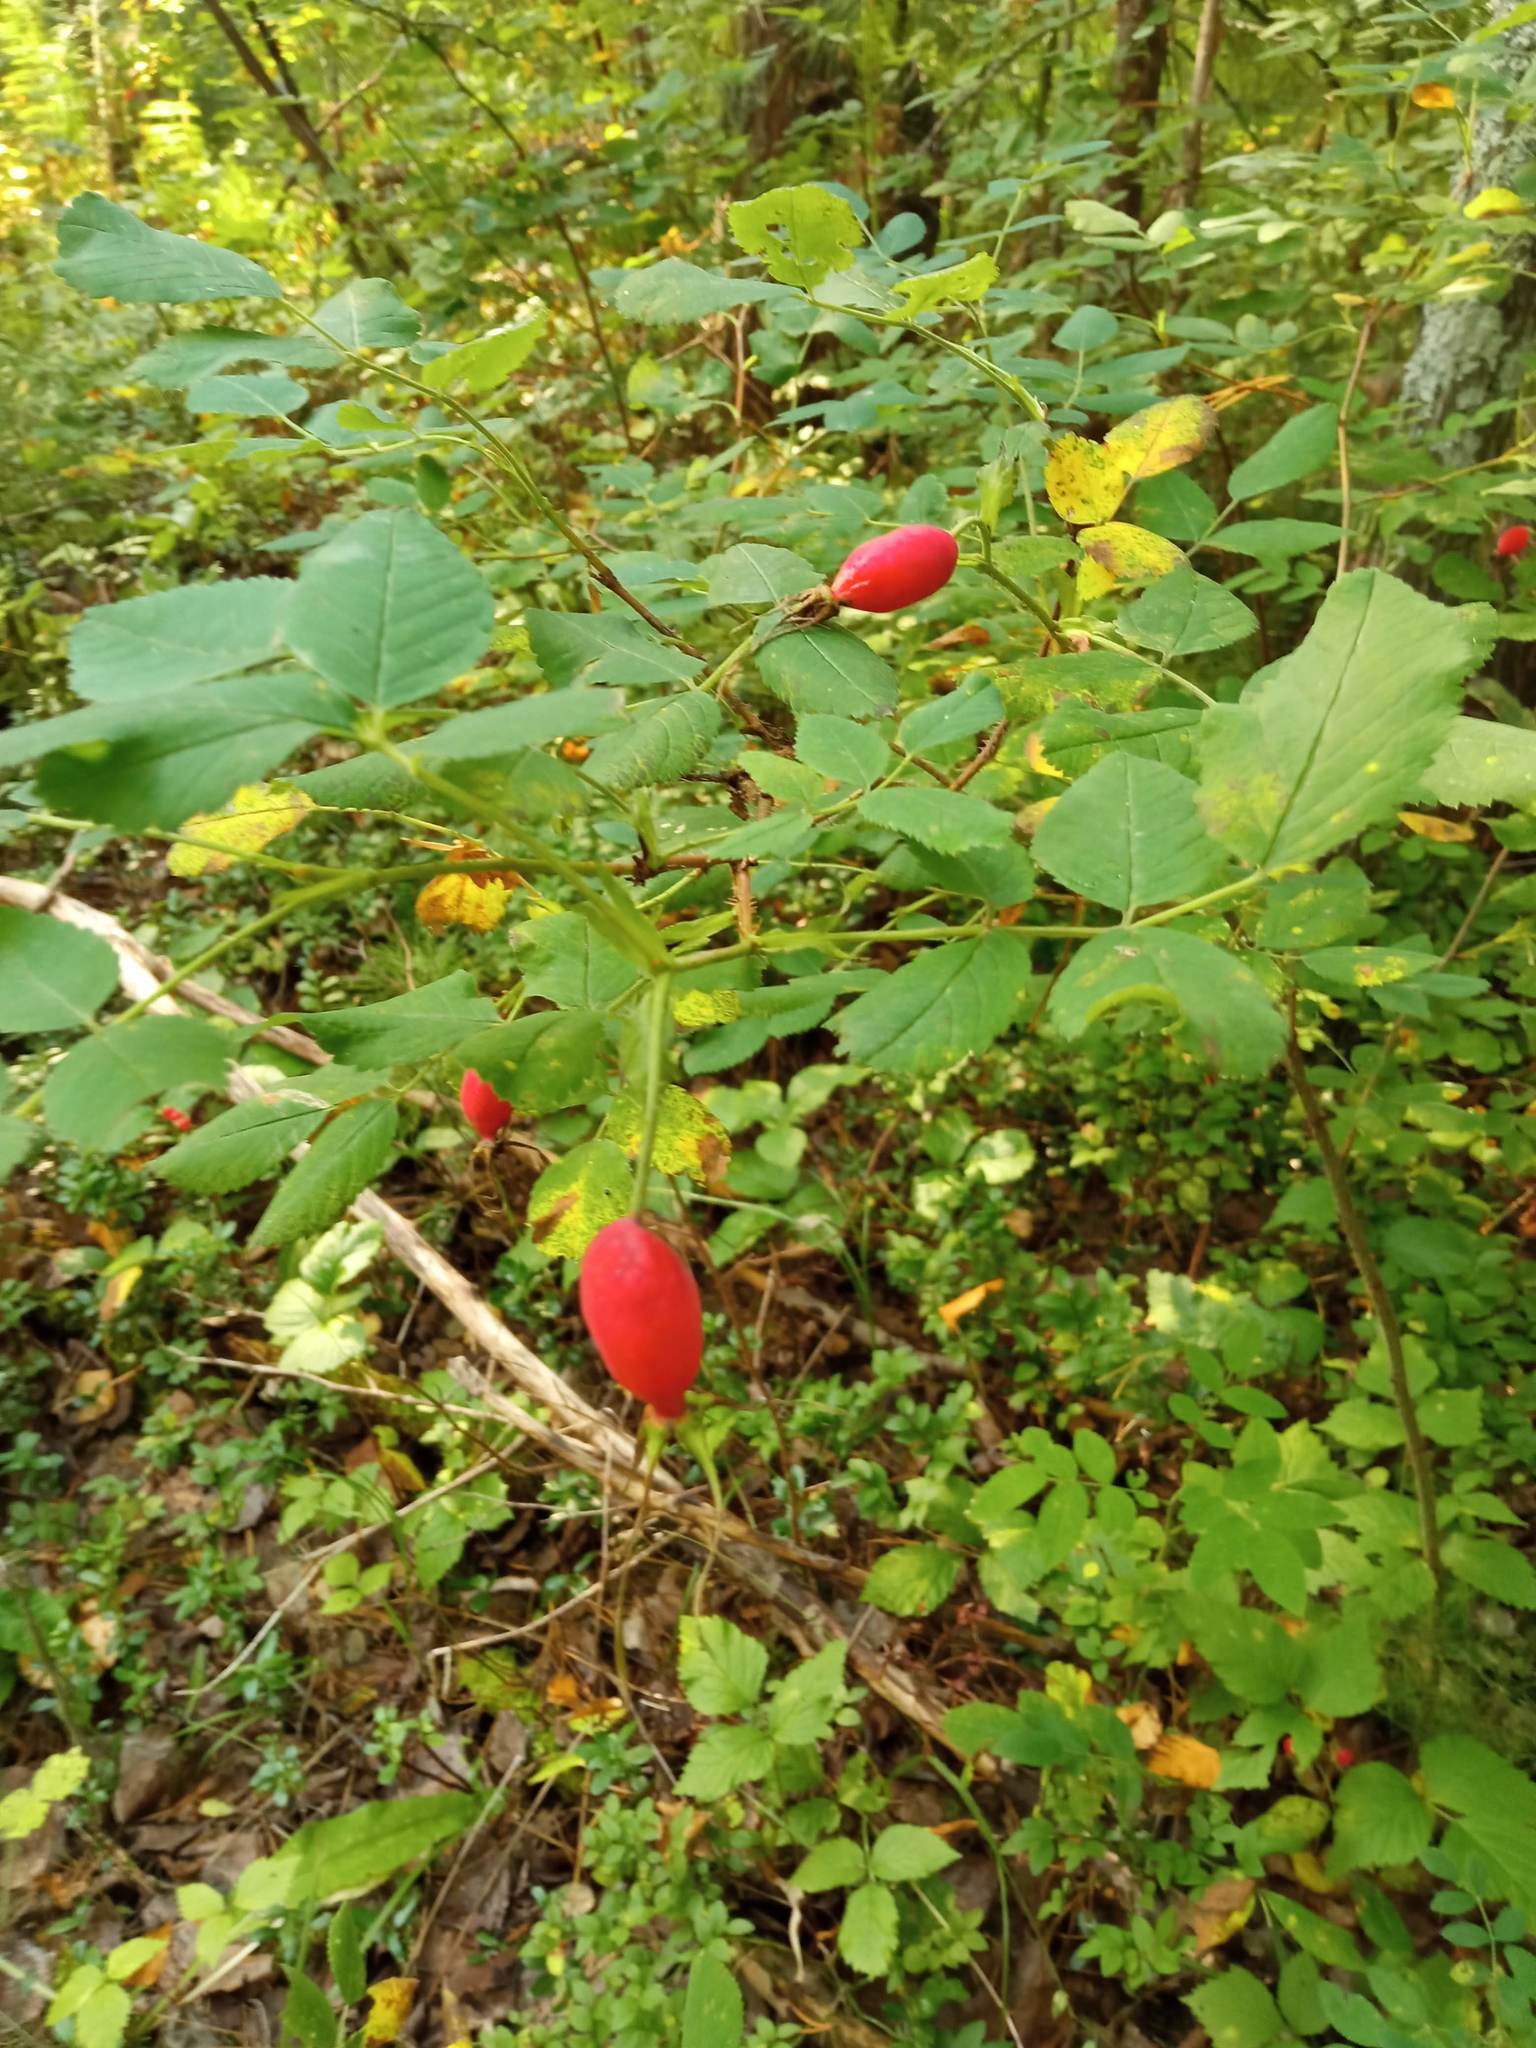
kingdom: Plantae
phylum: Tracheophyta
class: Magnoliopsida
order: Rosales
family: Rosaceae
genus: Rosa
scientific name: Rosa acicularis
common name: Prickly rose
